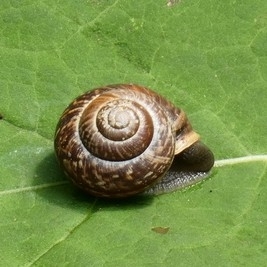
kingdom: Animalia
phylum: Mollusca
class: Gastropoda
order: Stylommatophora
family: Helicidae
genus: Arianta
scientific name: Arianta arbustorum
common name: Copse snail
